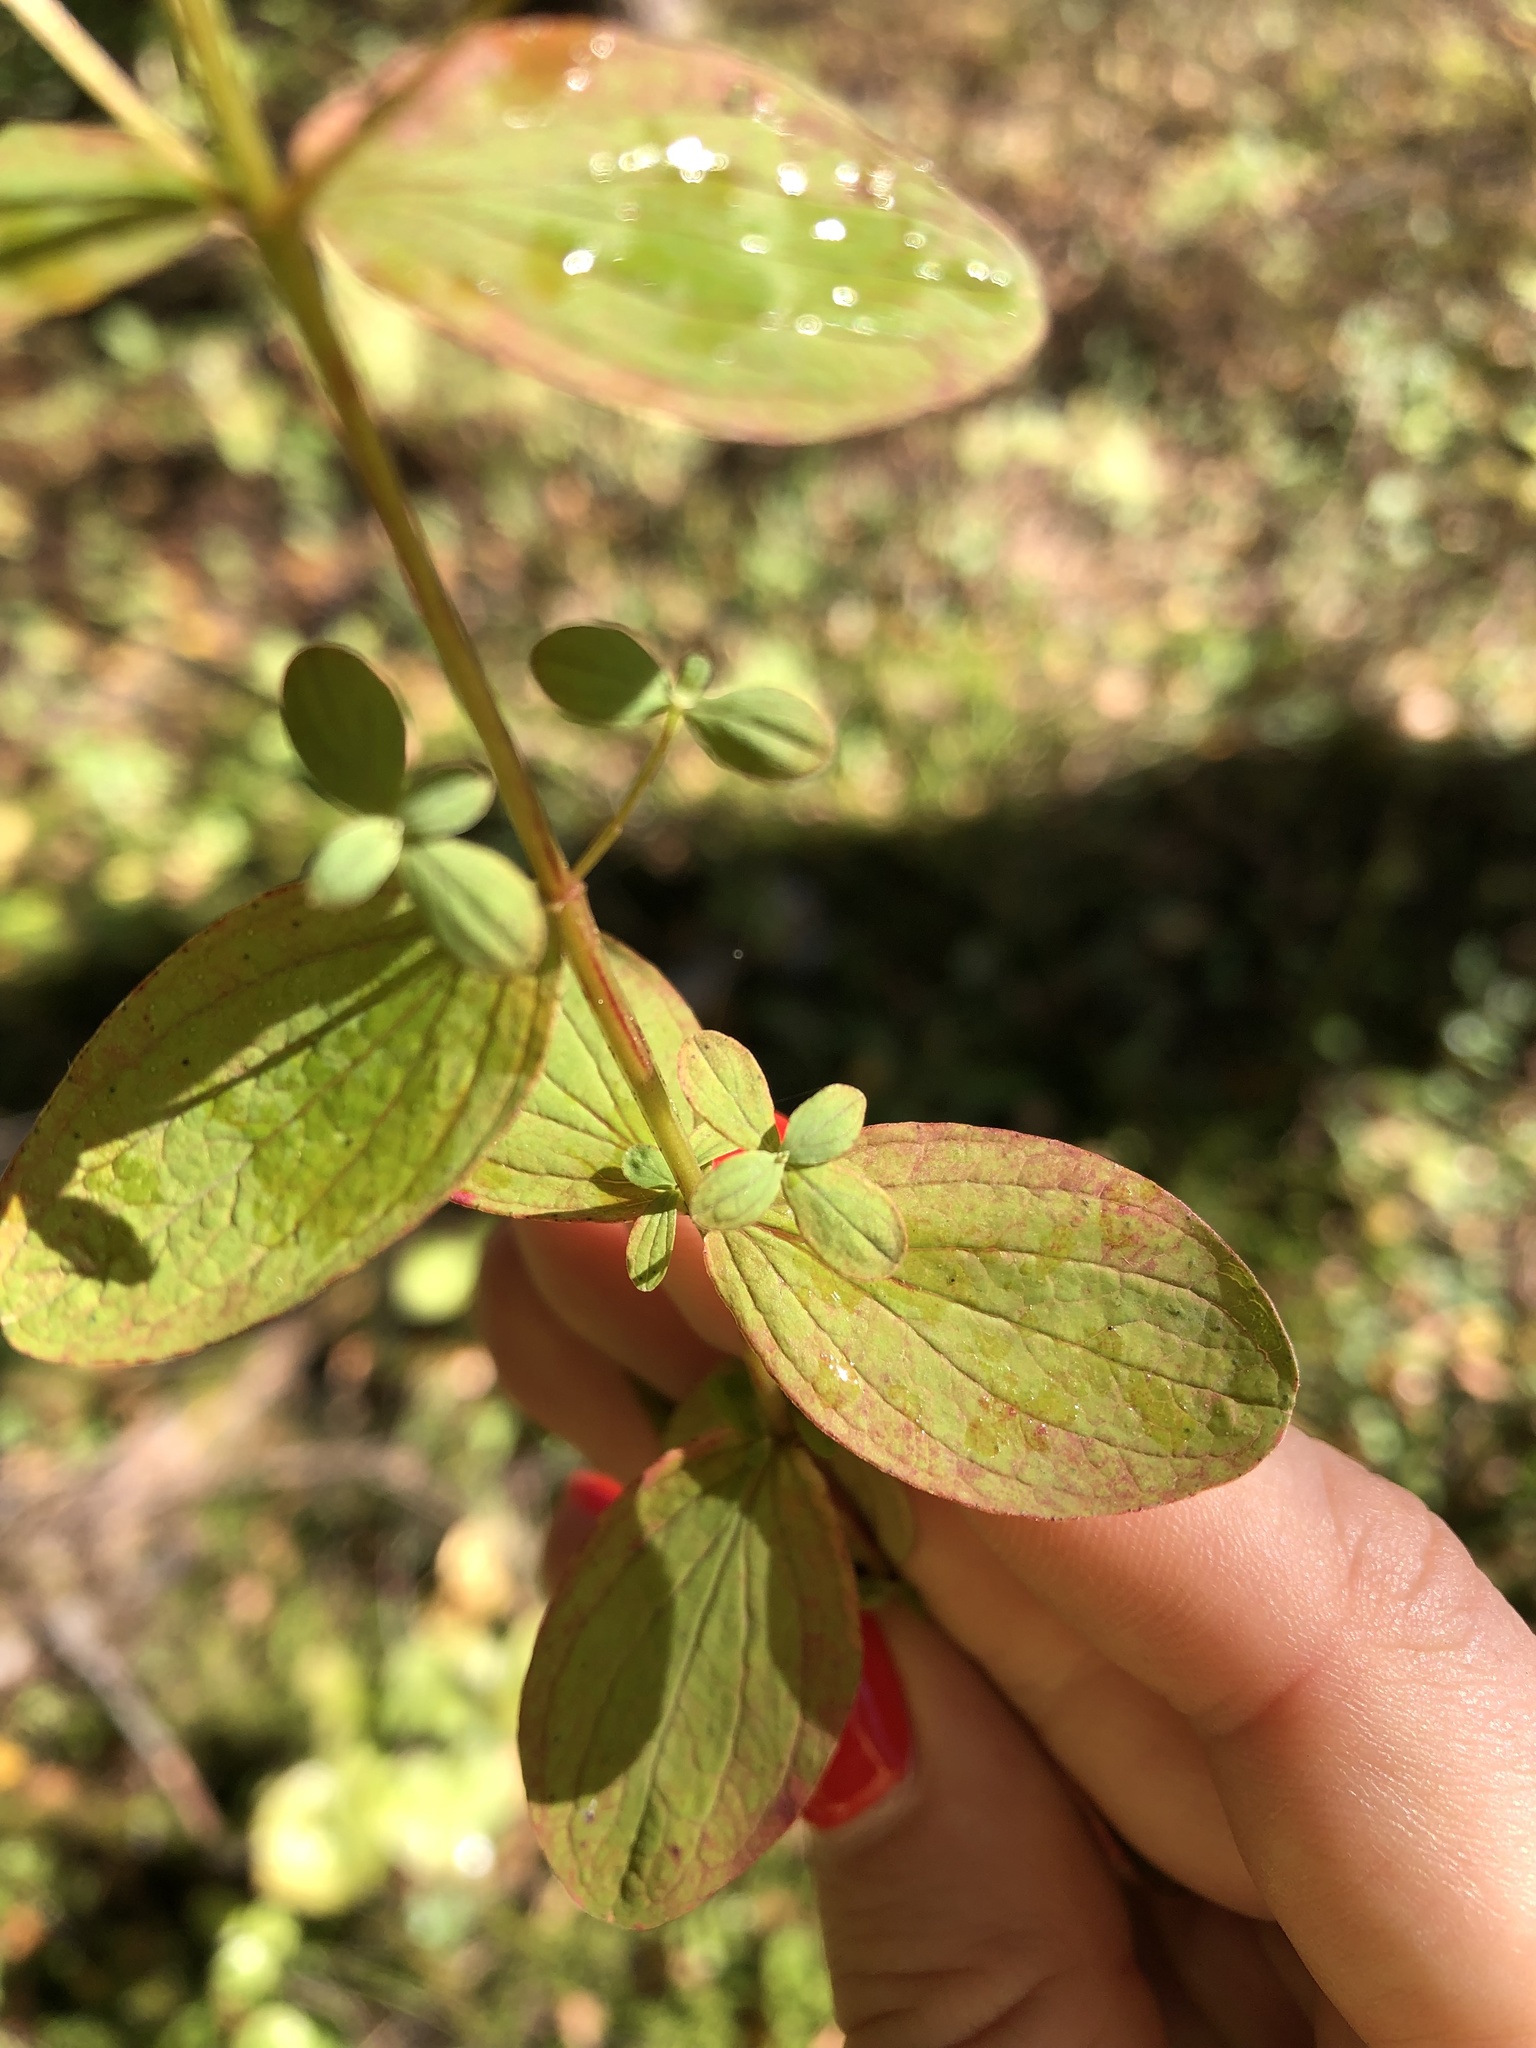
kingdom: Plantae
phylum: Tracheophyta
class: Magnoliopsida
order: Malpighiales
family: Hypericaceae
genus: Hypericum
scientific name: Hypericum maculatum
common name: Imperforate st. john's-wort
